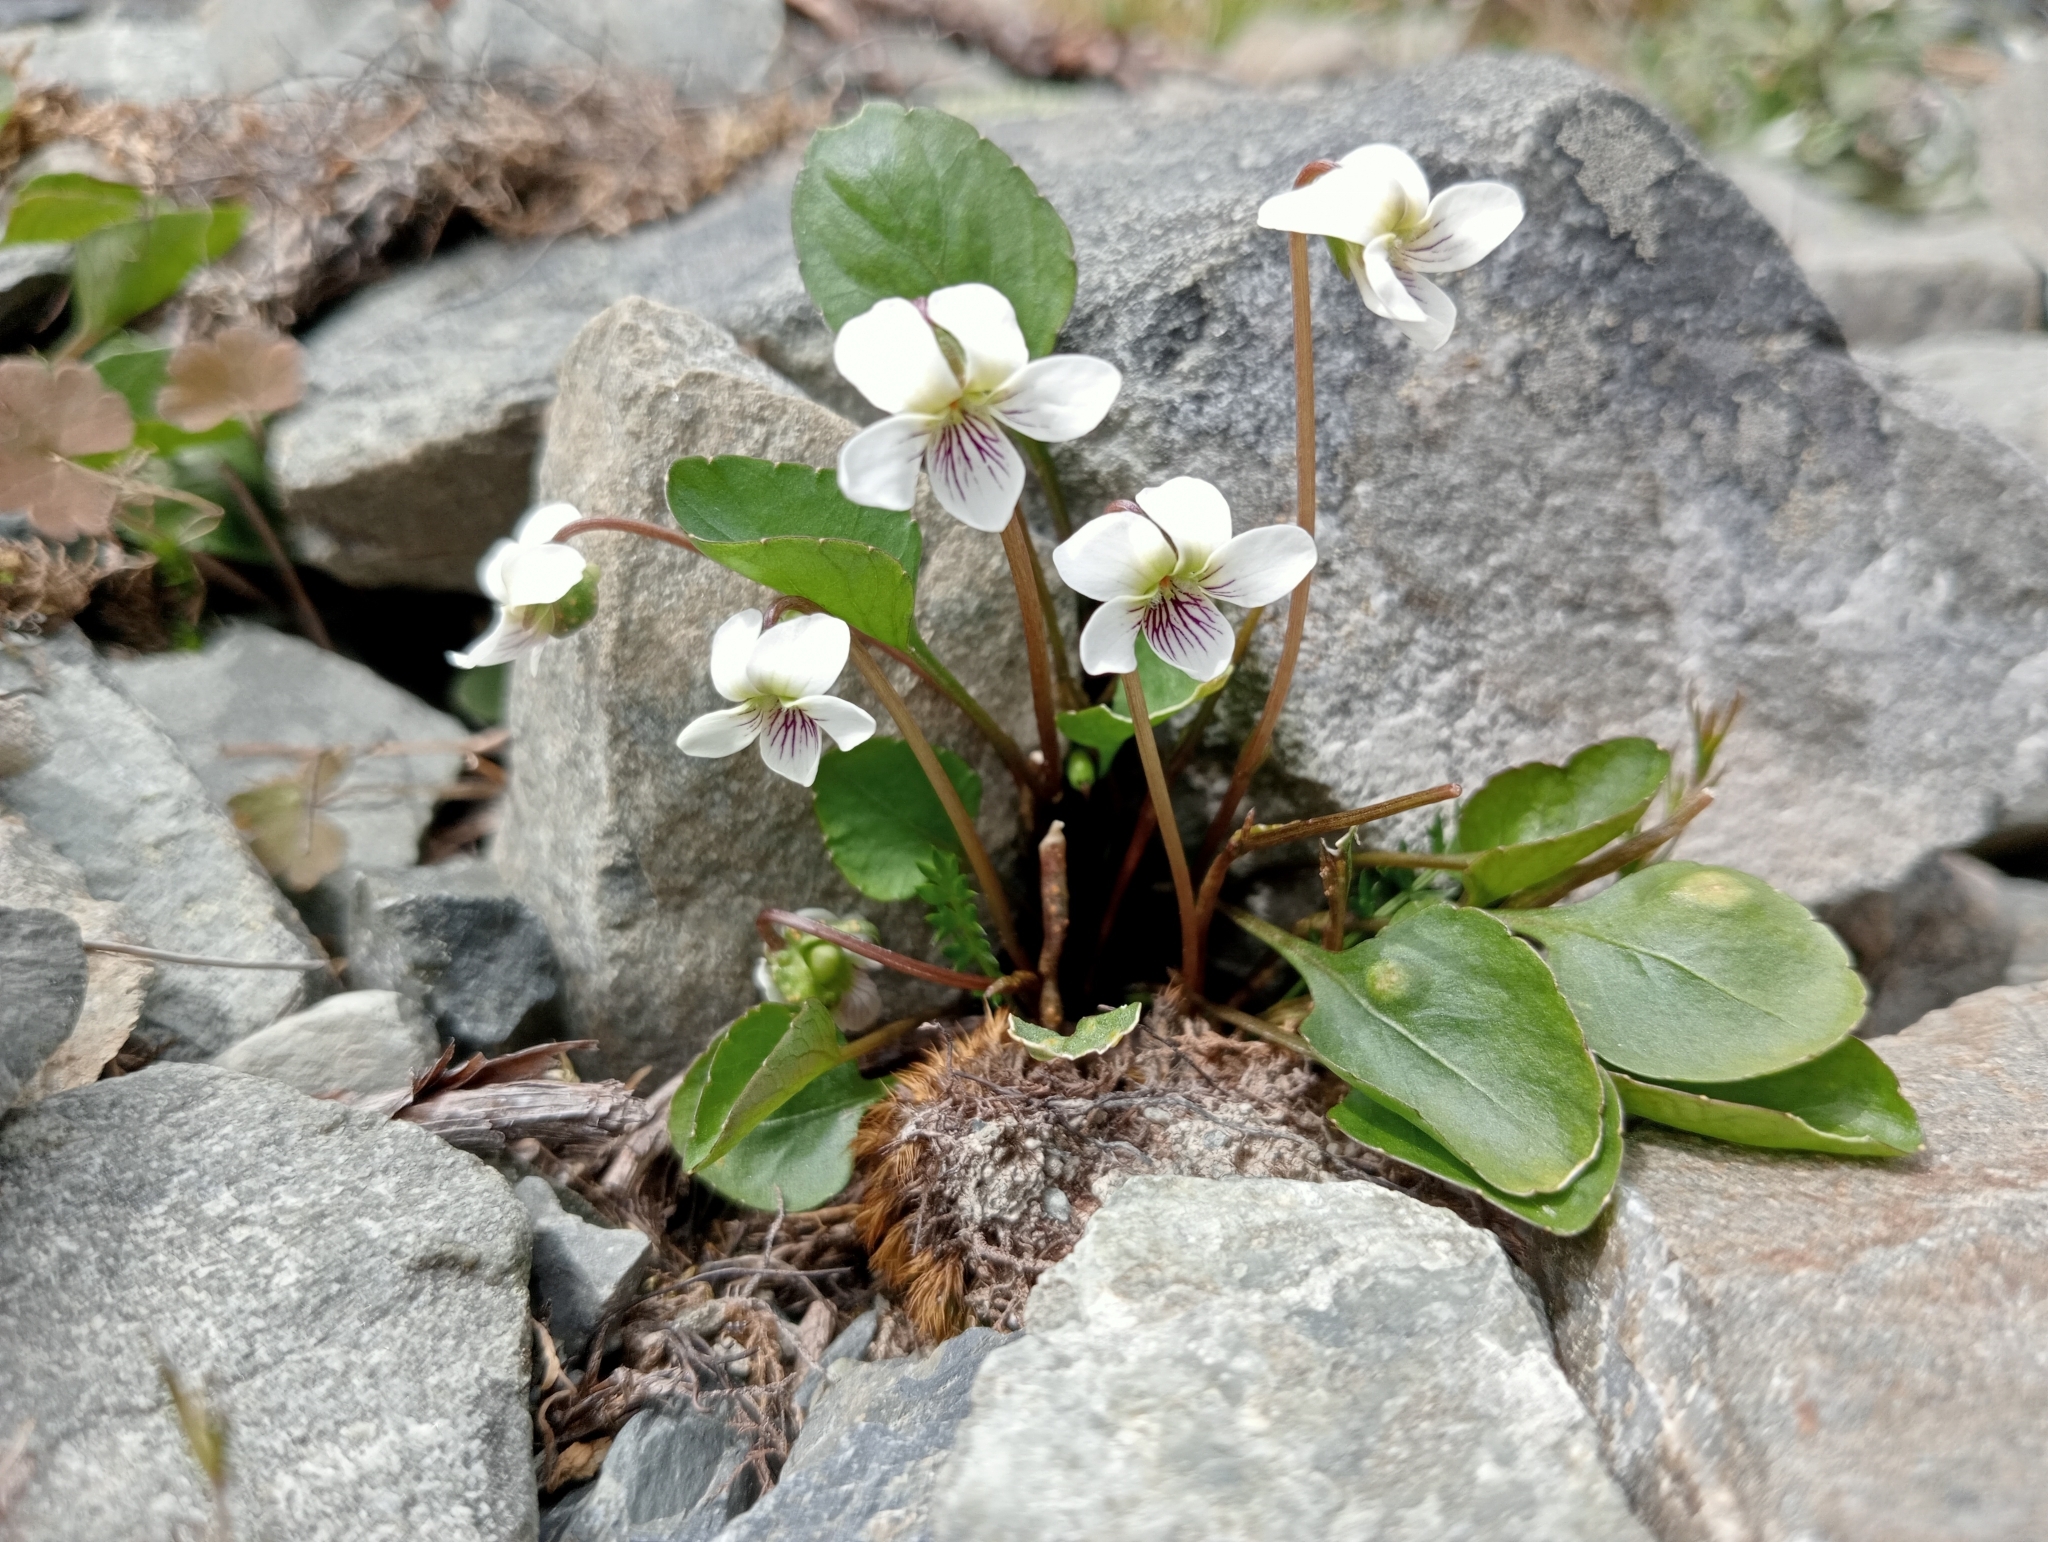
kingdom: Plantae
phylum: Tracheophyta
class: Magnoliopsida
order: Malpighiales
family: Violaceae
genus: Viola
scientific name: Viola cunninghamii
